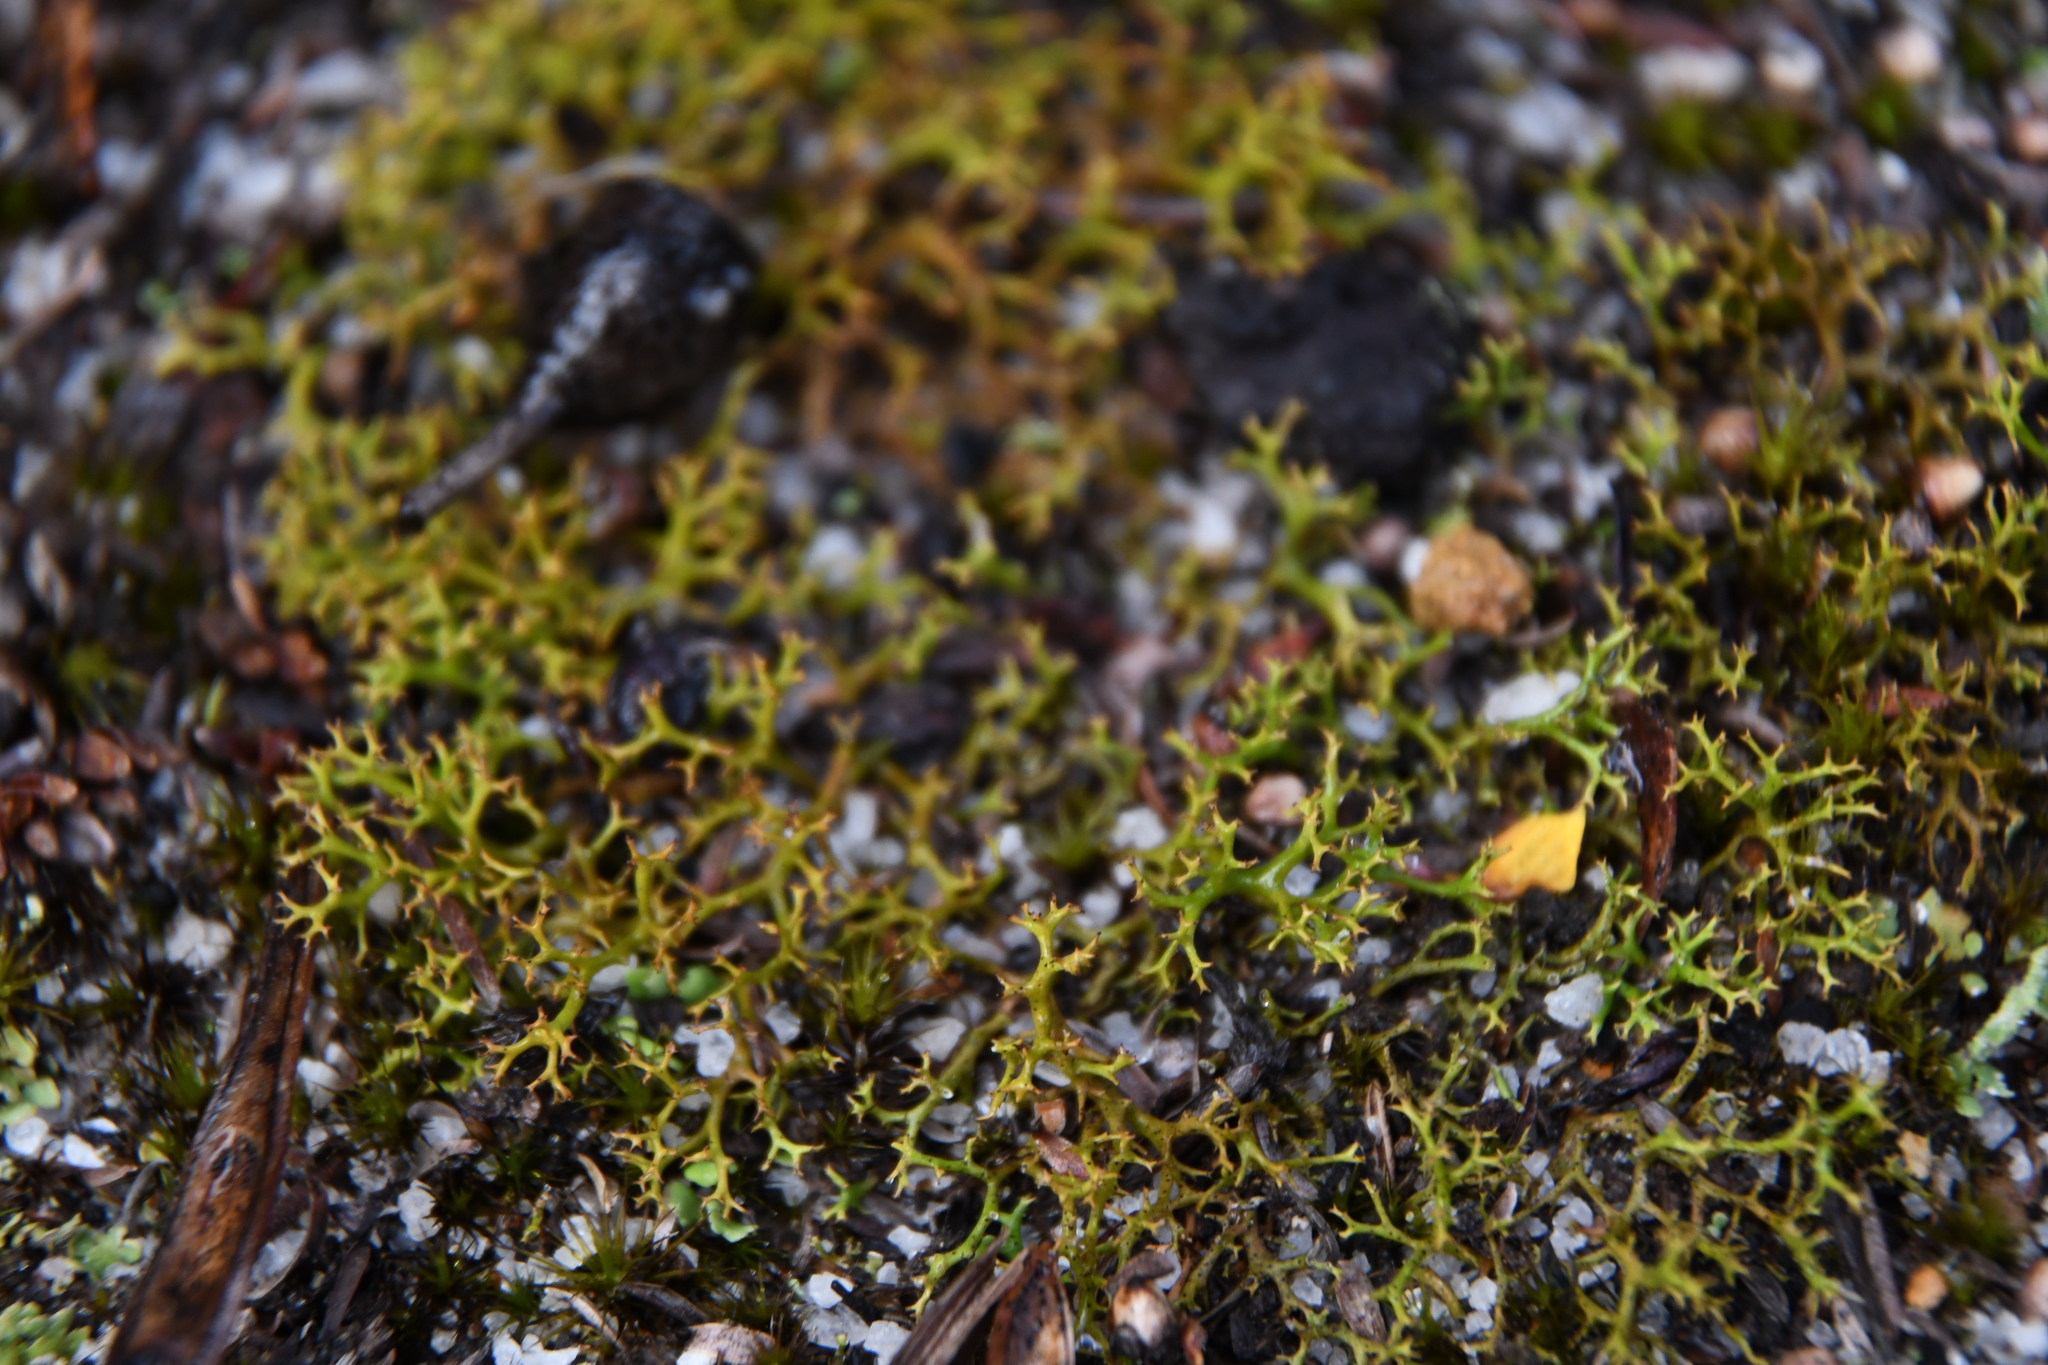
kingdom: Fungi
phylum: Ascomycota
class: Lecanoromycetes
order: Lecanorales
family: Cladoniaceae
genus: Cladia
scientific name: Cladia aggregata
